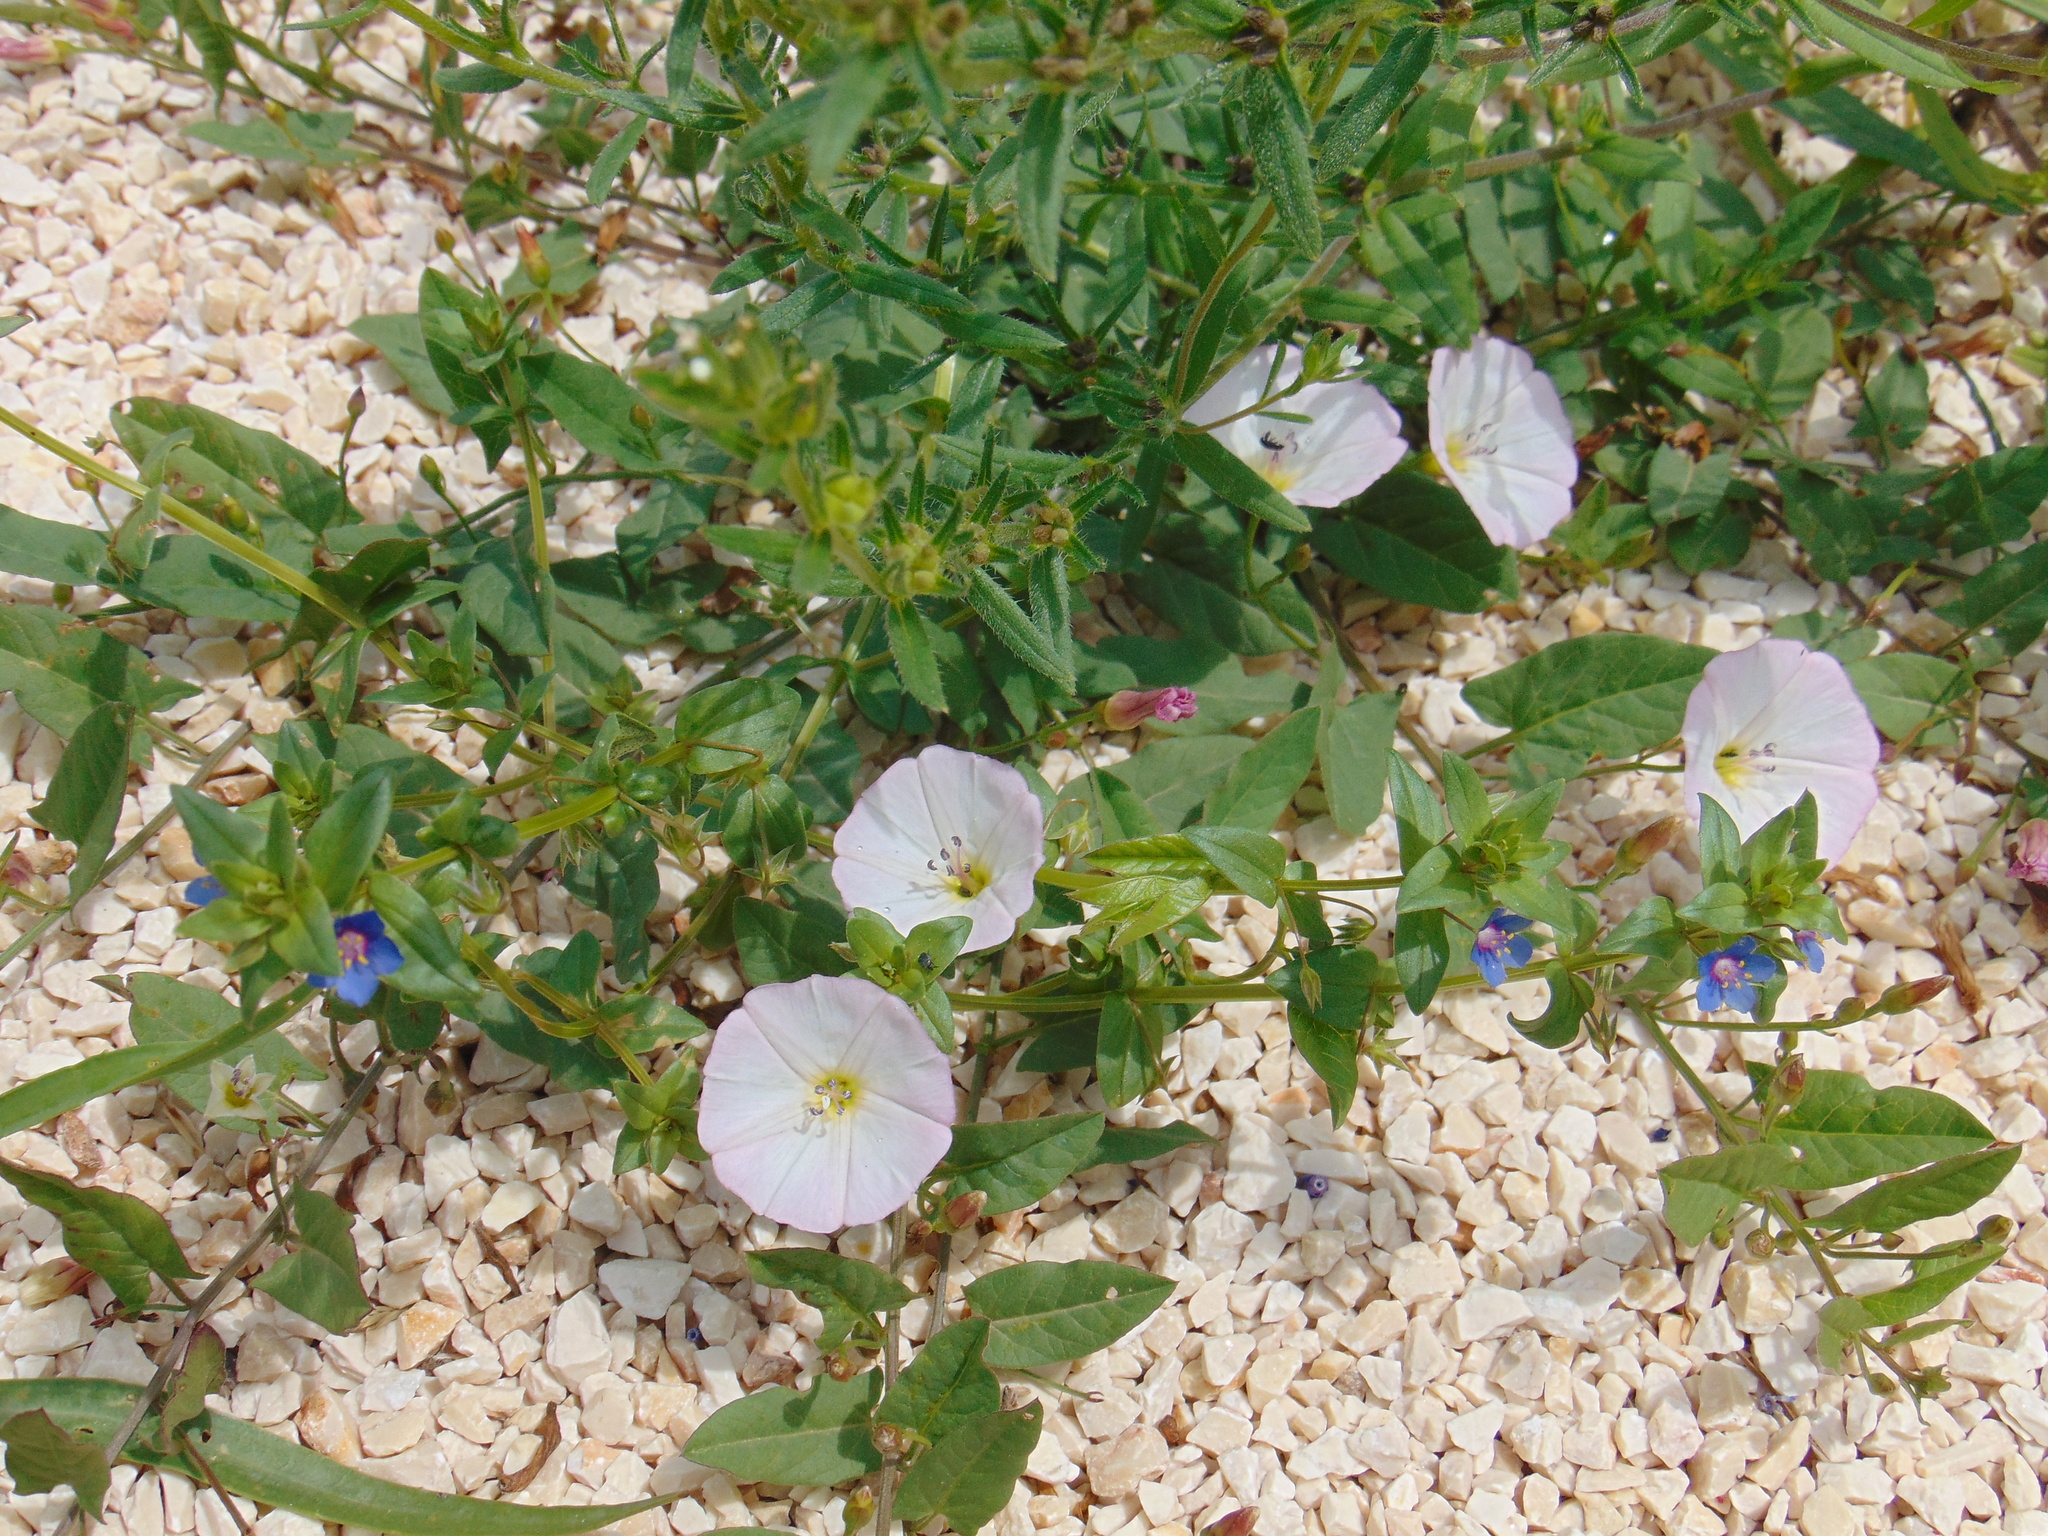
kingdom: Plantae
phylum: Tracheophyta
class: Magnoliopsida
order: Ericales
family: Primulaceae
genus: Lysimachia
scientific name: Lysimachia foemina
